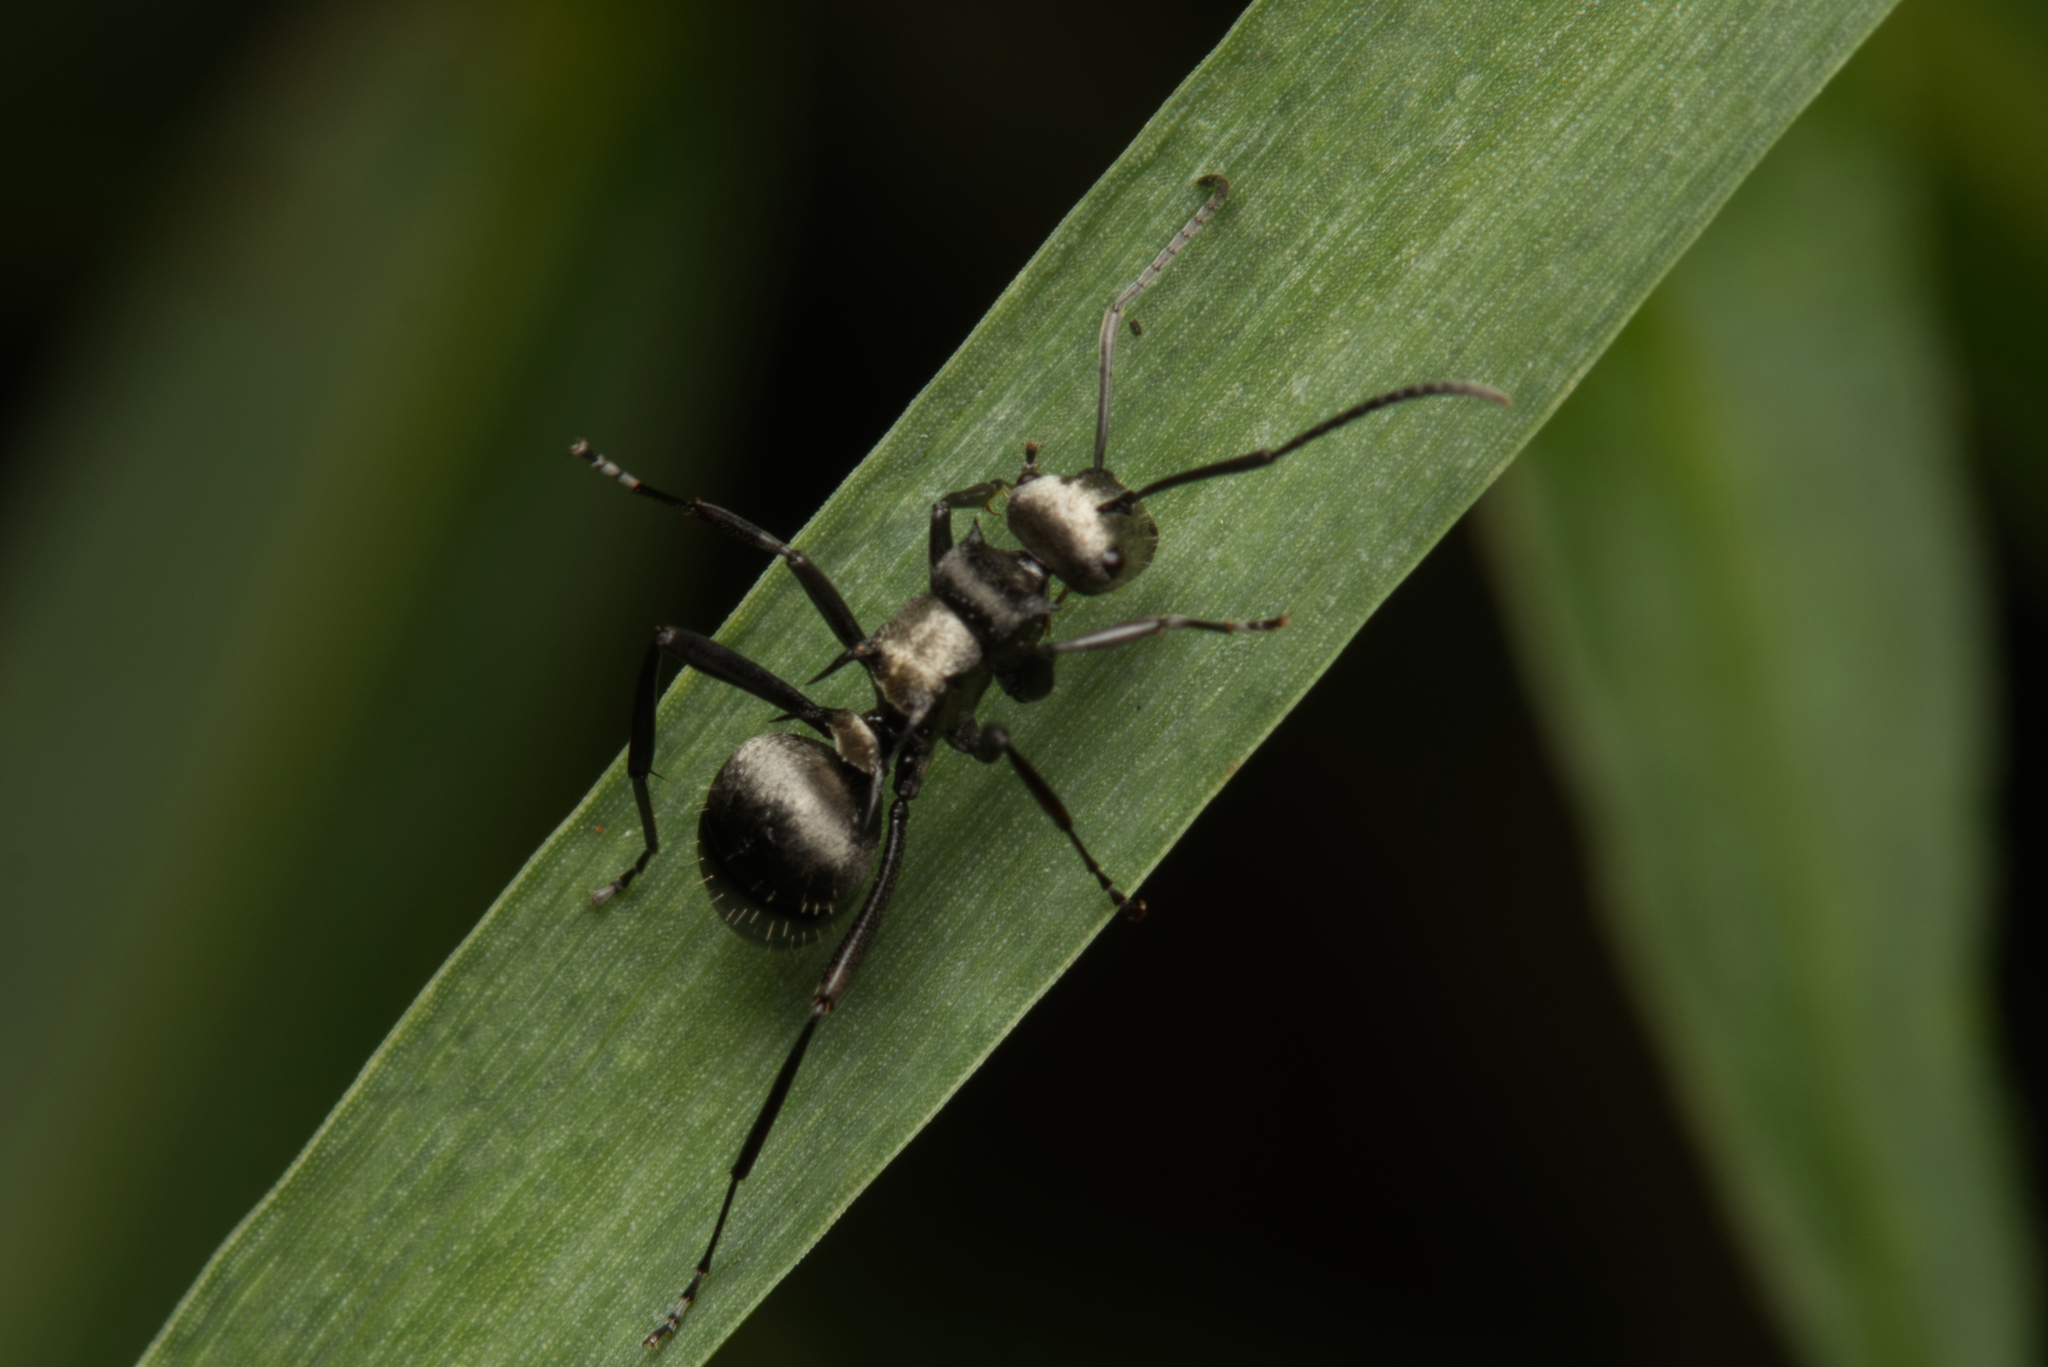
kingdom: Animalia
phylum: Arthropoda
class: Insecta
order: Hymenoptera
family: Formicidae
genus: Polyrhachis
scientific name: Polyrhachis daemeli
